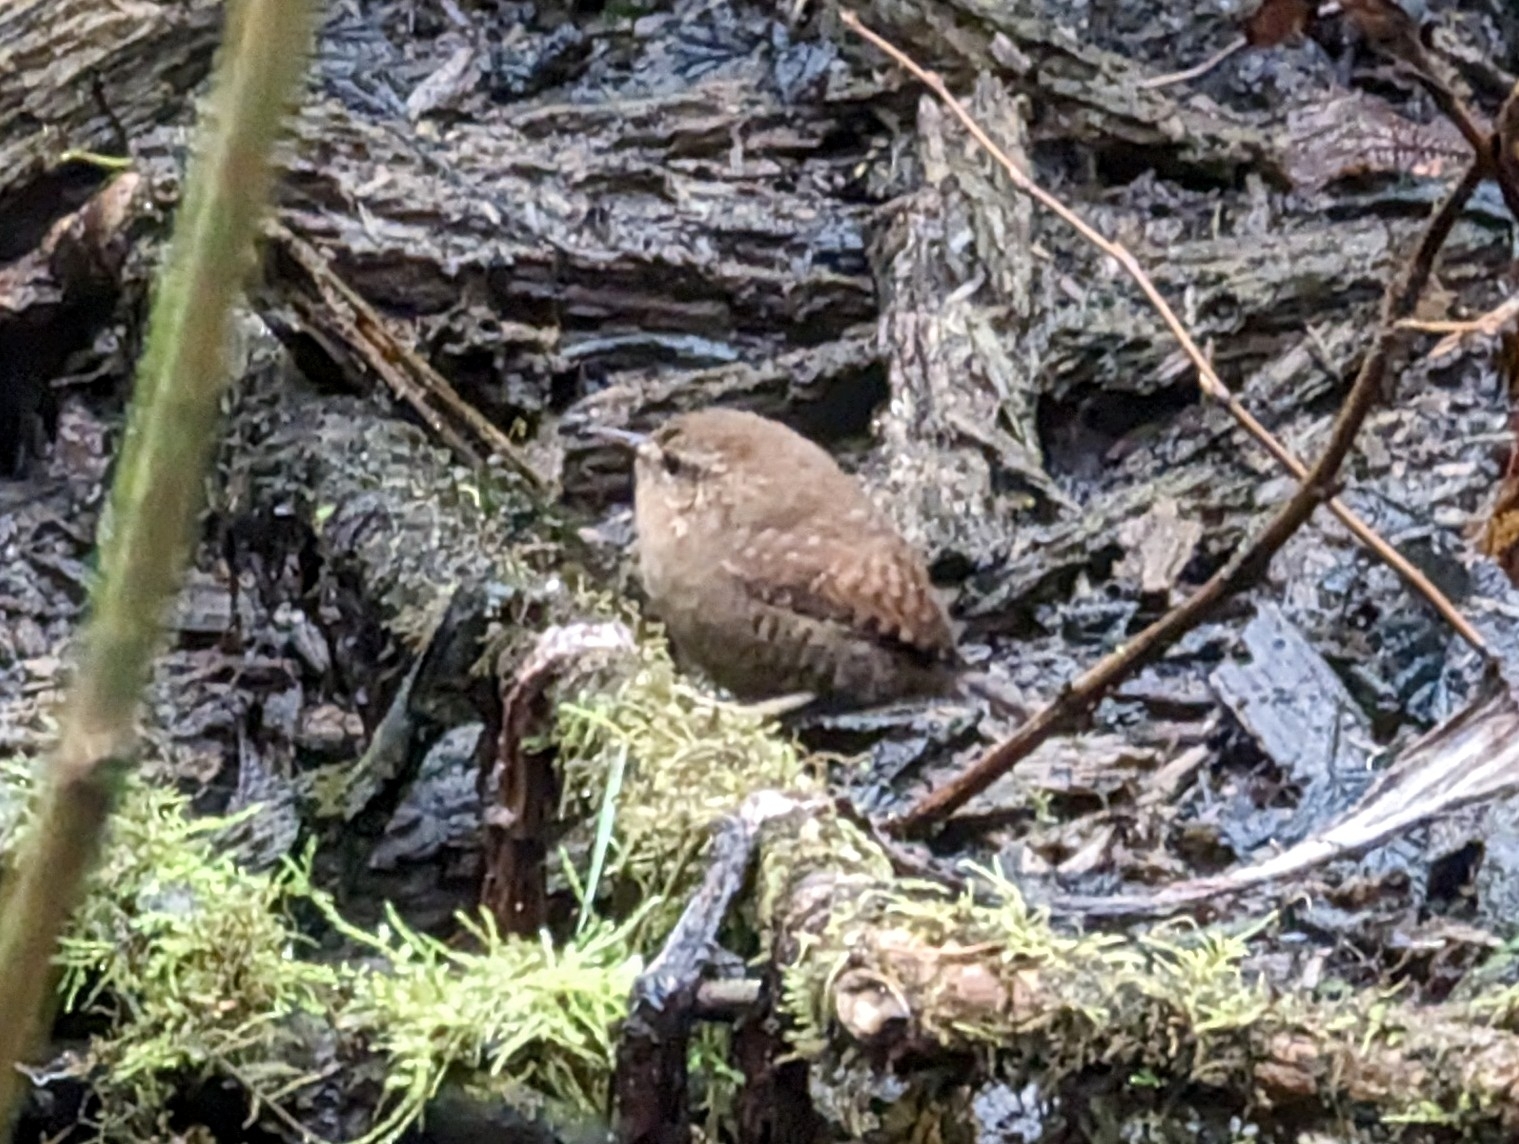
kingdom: Animalia
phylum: Chordata
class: Aves
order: Passeriformes
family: Troglodytidae
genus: Troglodytes
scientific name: Troglodytes pacificus
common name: Pacific wren
